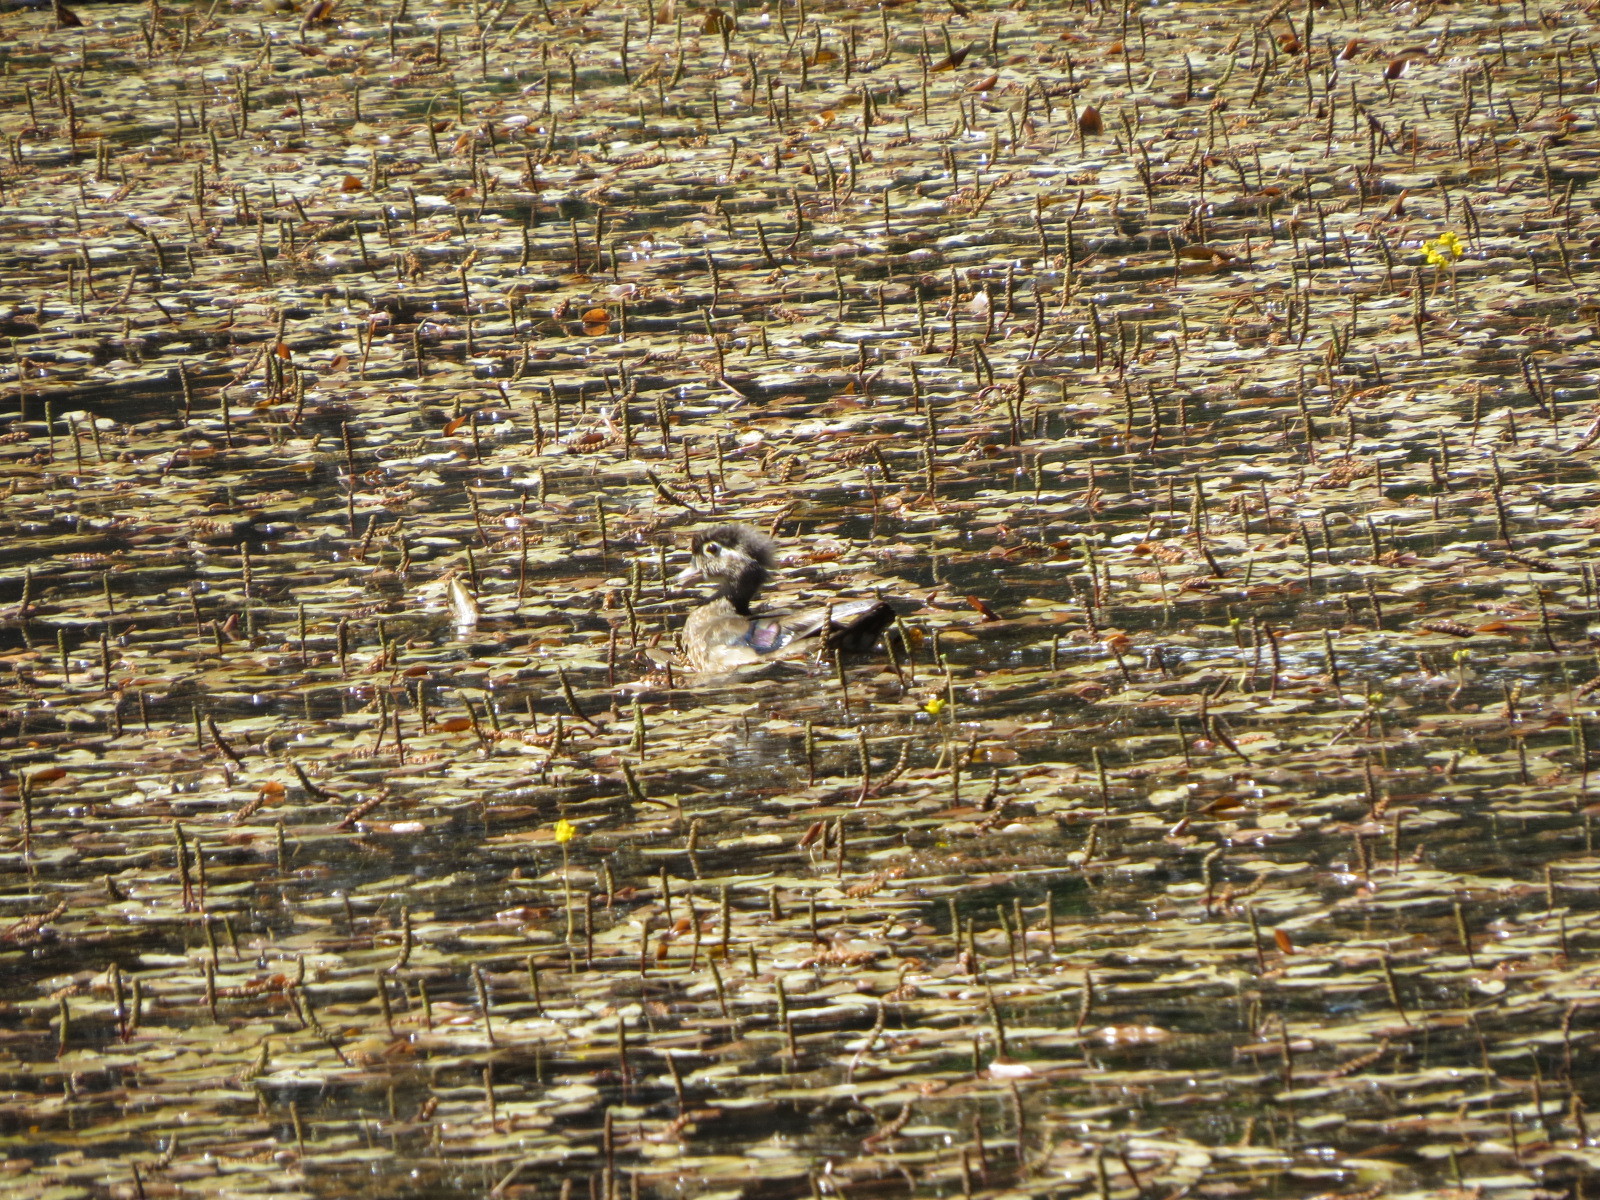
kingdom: Animalia
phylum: Chordata
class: Aves
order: Anseriformes
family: Anatidae
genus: Aix
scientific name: Aix sponsa
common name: Wood duck
